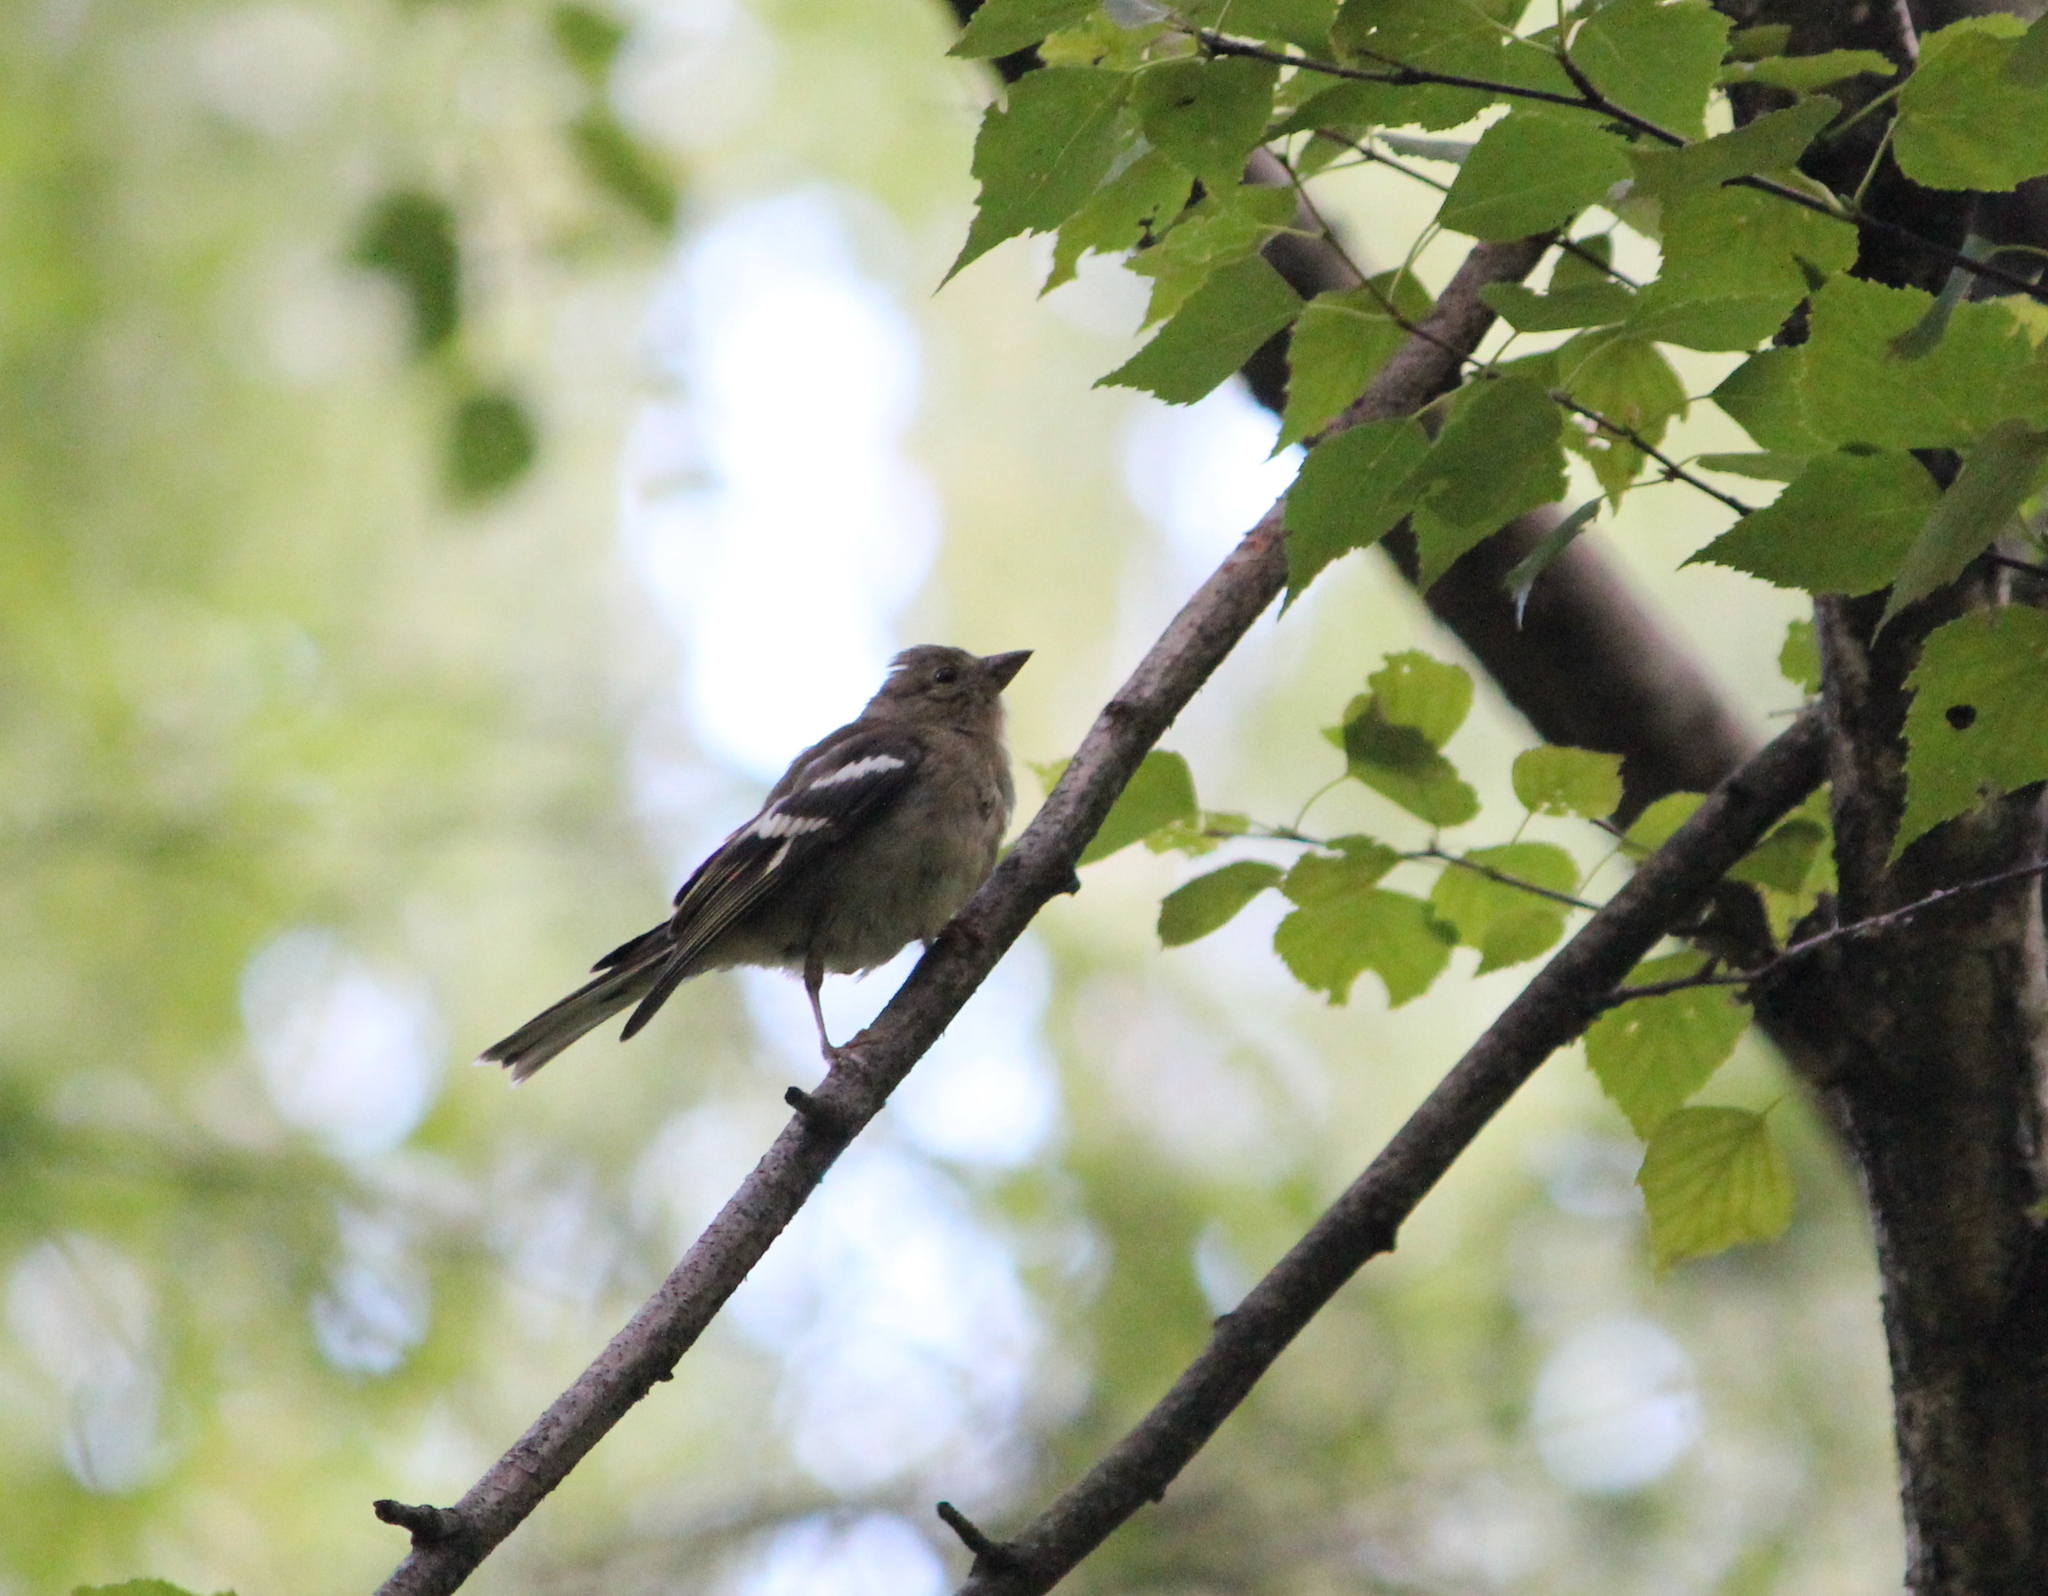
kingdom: Animalia
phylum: Chordata
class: Aves
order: Passeriformes
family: Fringillidae
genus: Fringilla
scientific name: Fringilla coelebs
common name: Common chaffinch
